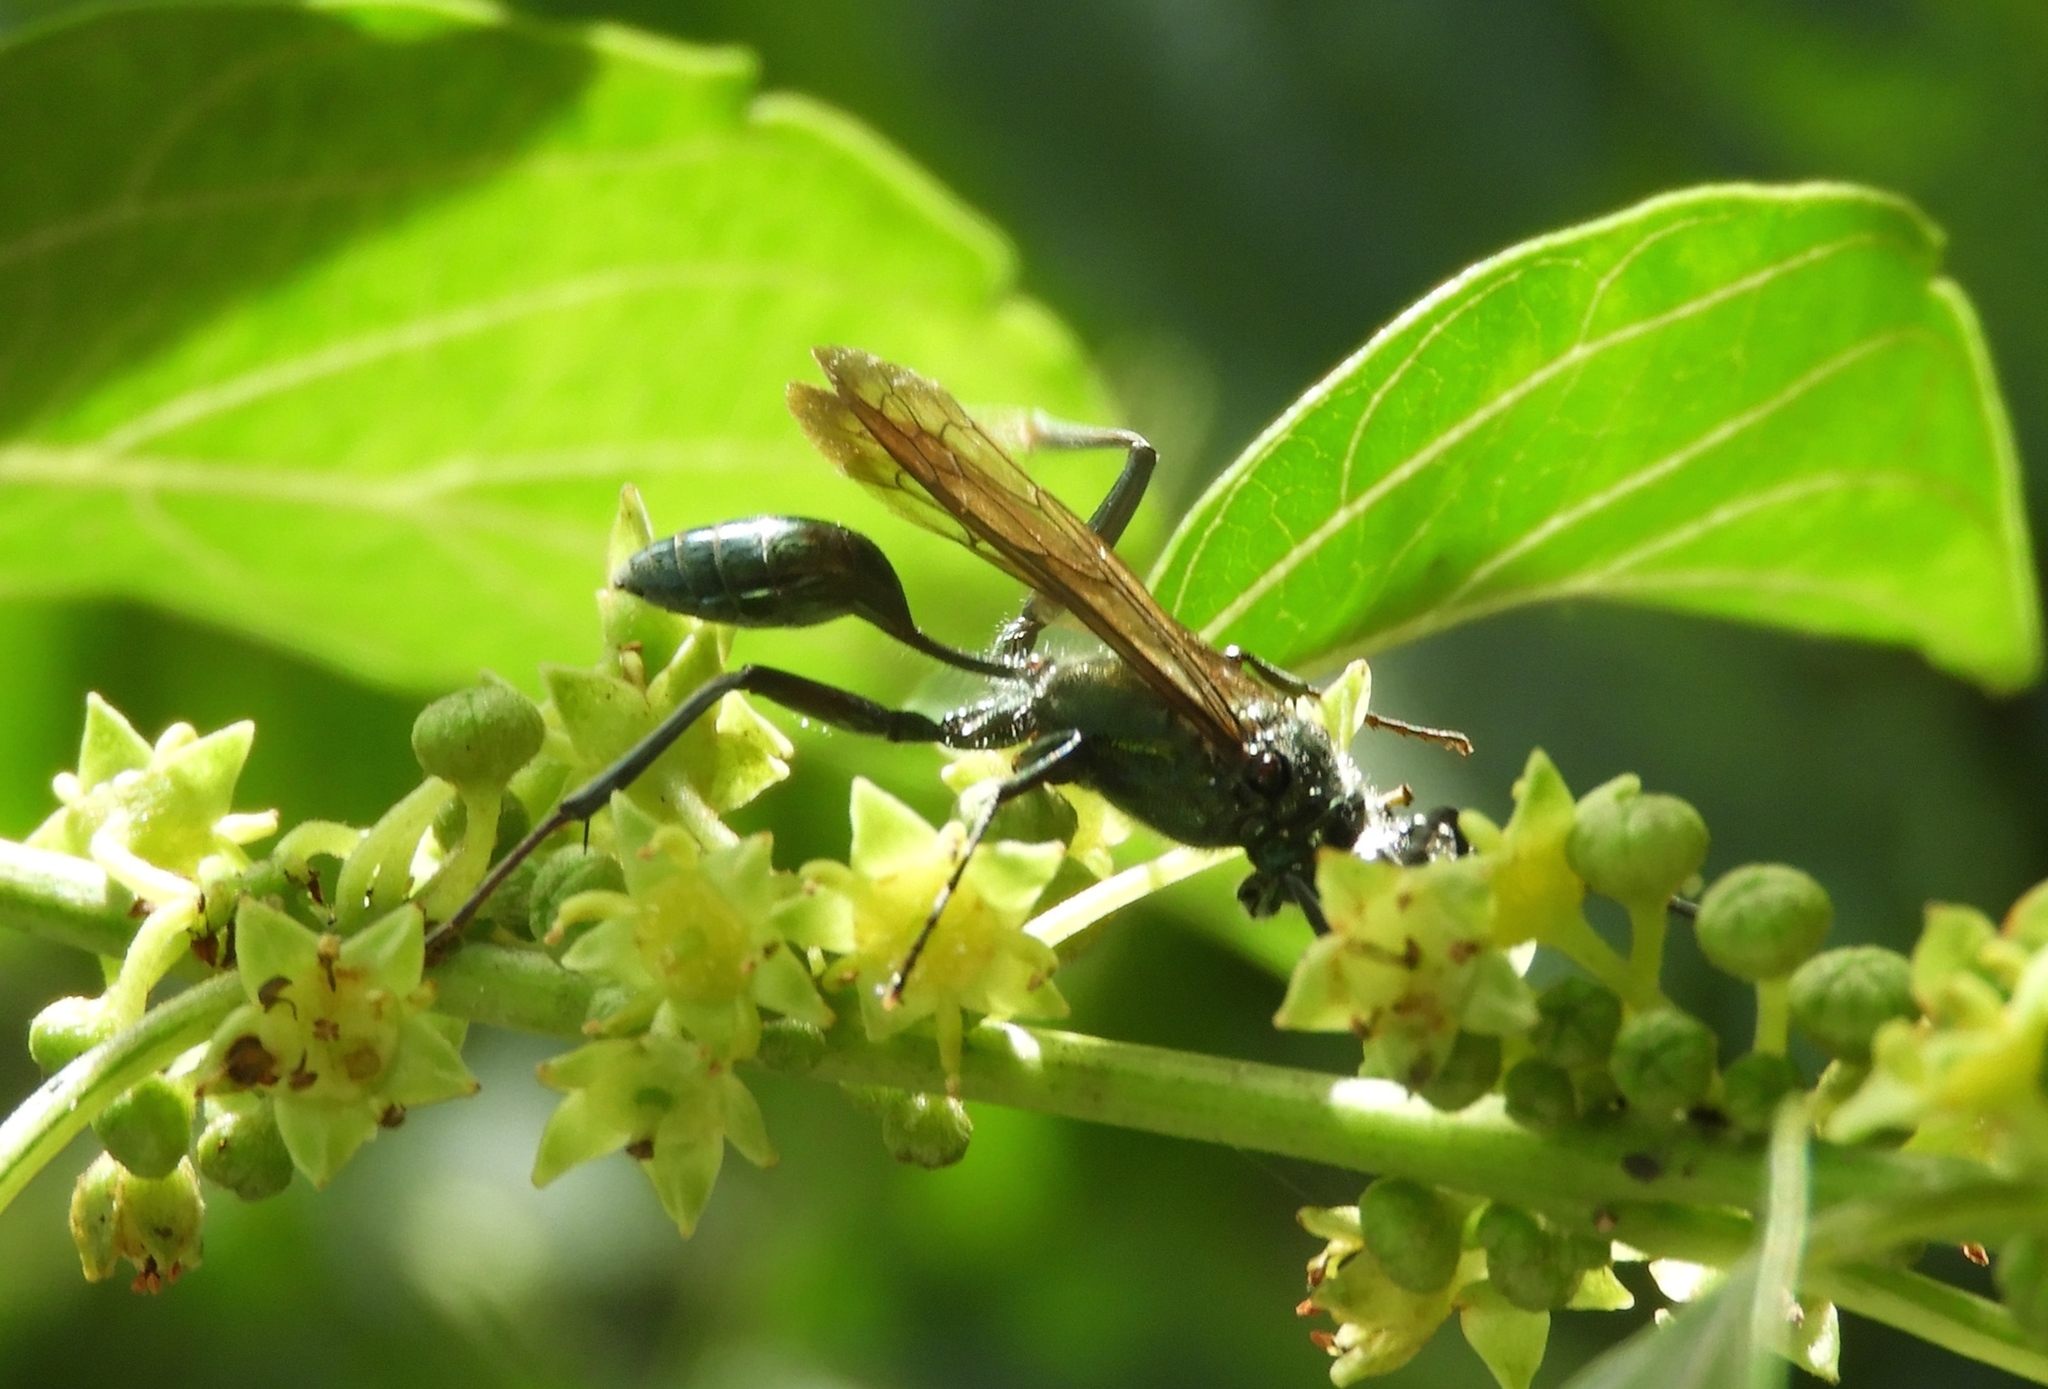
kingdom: Animalia
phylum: Arthropoda
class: Insecta
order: Hymenoptera
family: Sphecidae
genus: Chalybion
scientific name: Chalybion
